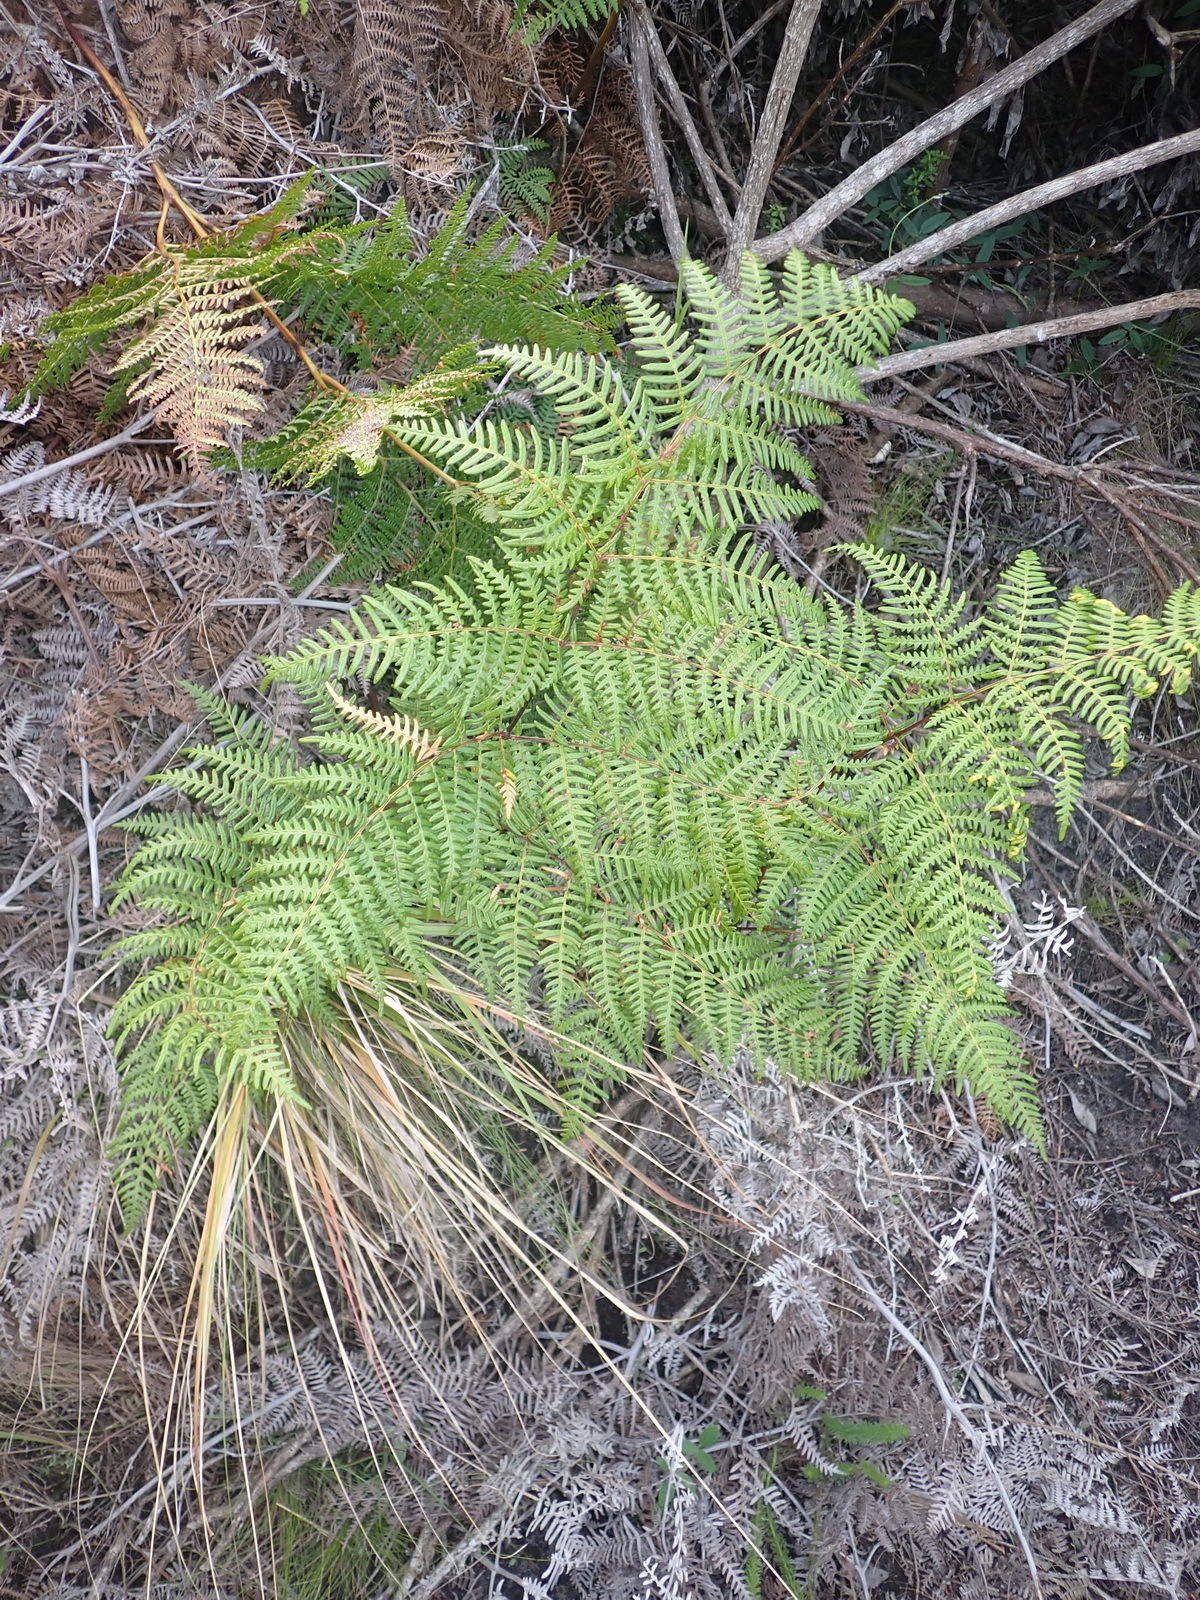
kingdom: Plantae
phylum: Tracheophyta
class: Polypodiopsida
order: Polypodiales
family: Dennstaedtiaceae
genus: Pteridium
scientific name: Pteridium aquilinum
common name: Bracken
